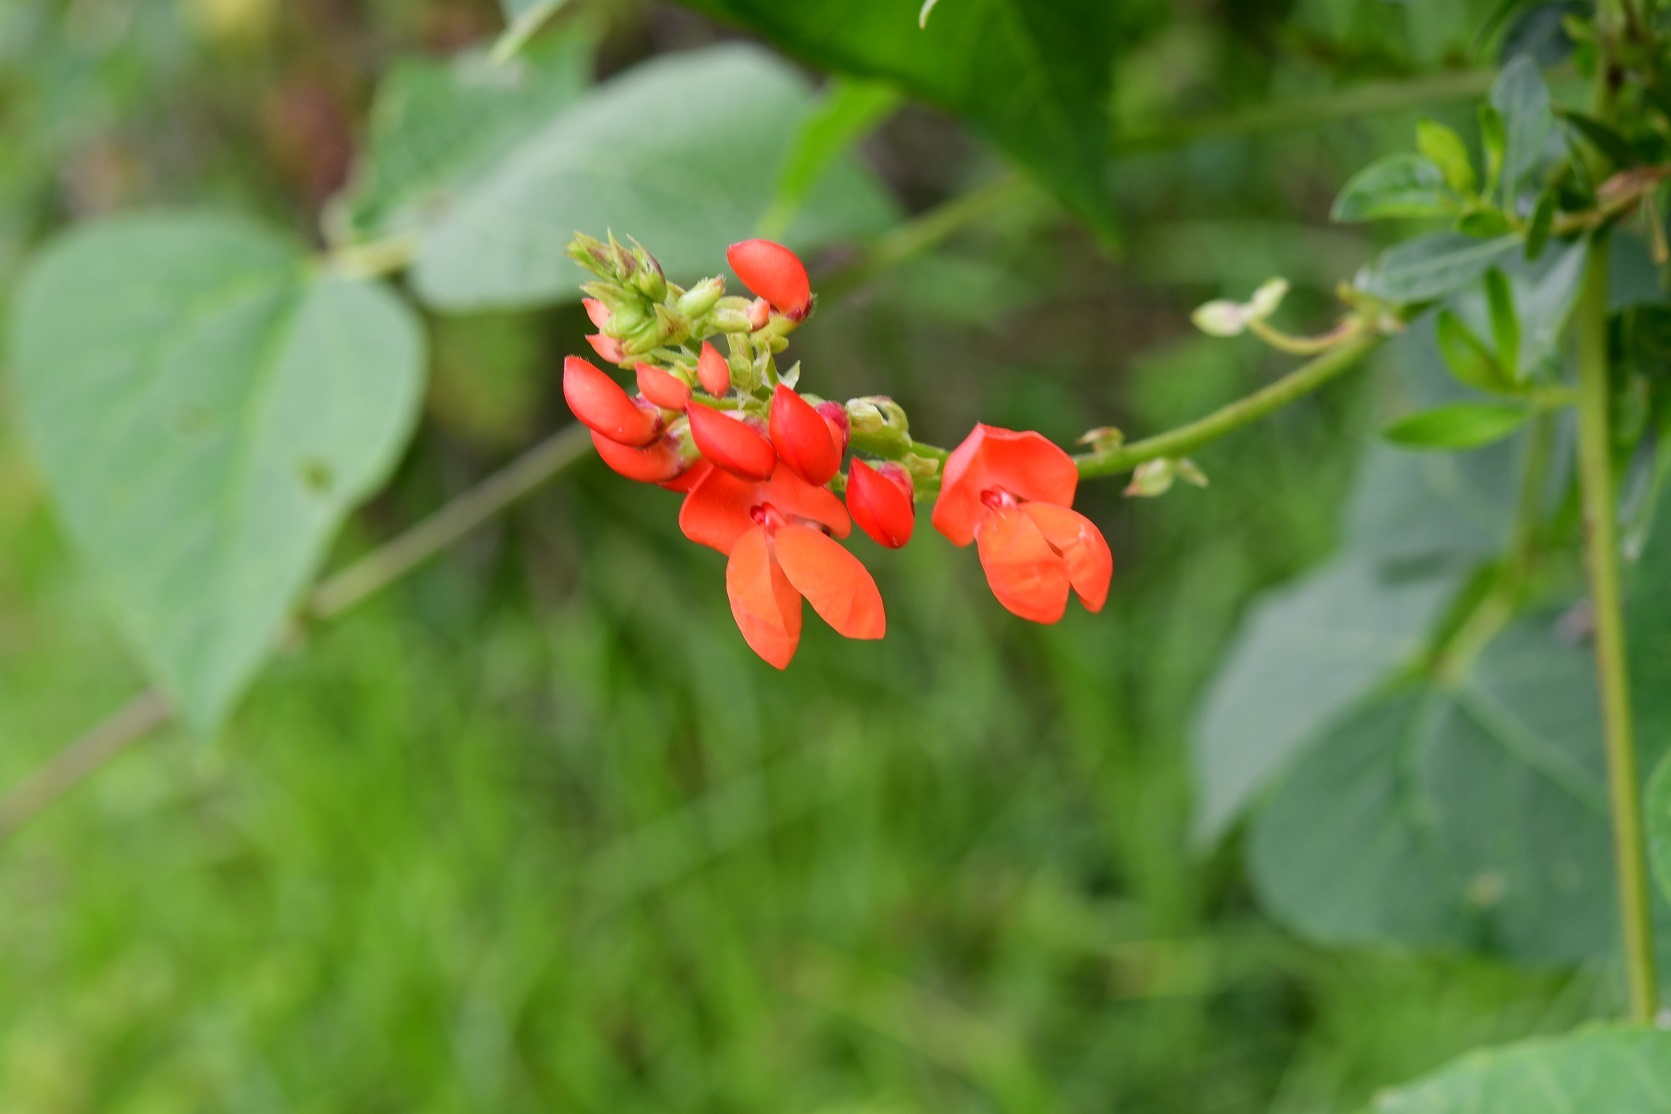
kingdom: Plantae
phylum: Tracheophyta
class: Magnoliopsida
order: Fabales
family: Fabaceae
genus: Phaseolus
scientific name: Phaseolus coccineus
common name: Runner bean
